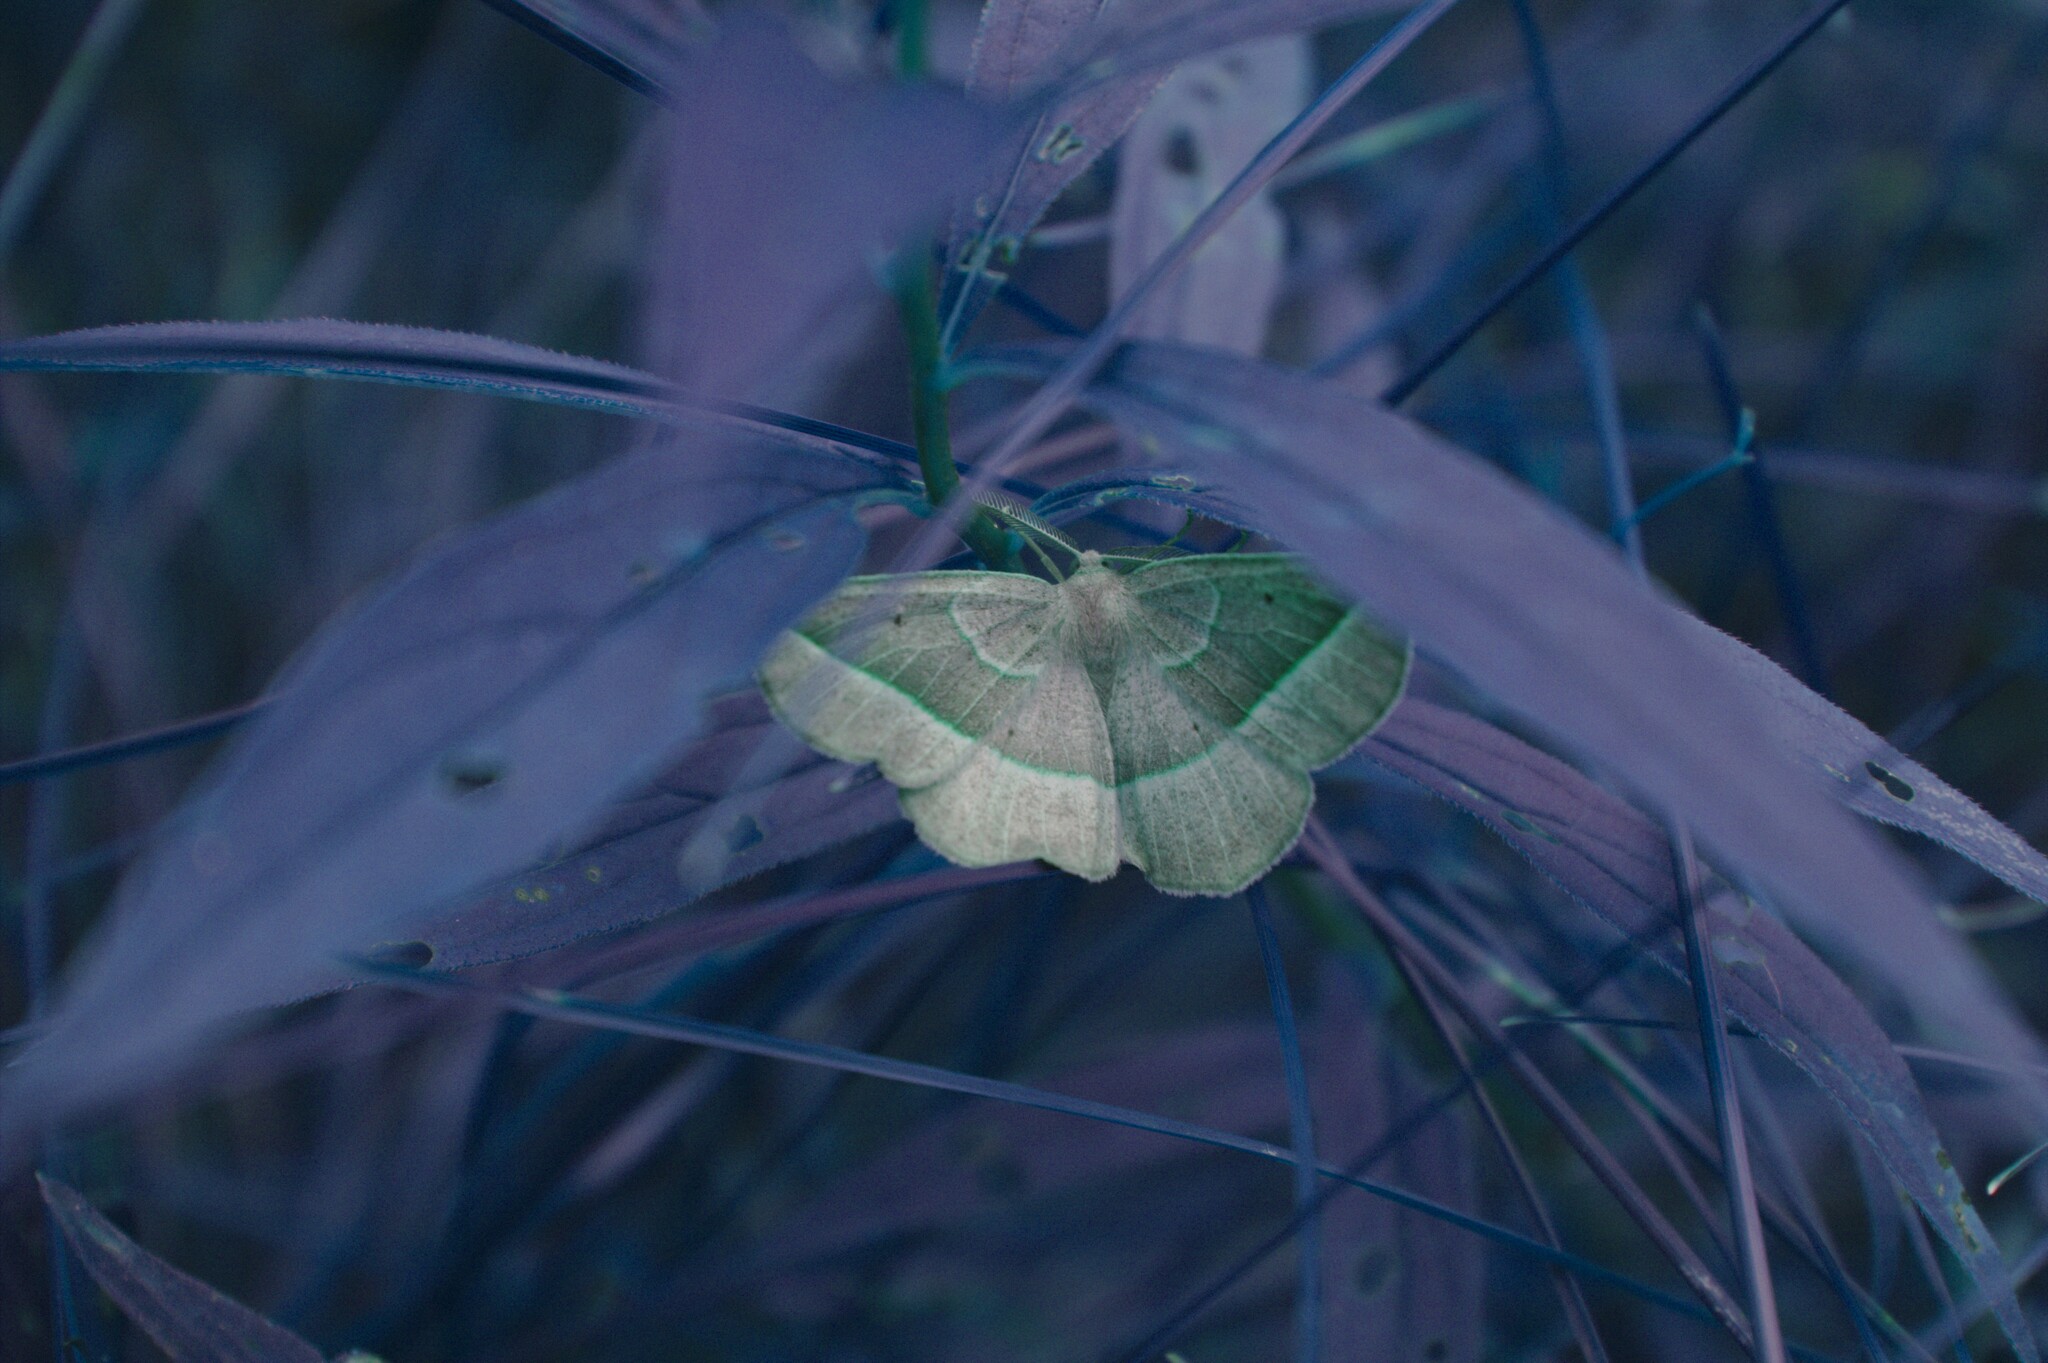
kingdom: Animalia
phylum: Arthropoda
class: Insecta
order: Lepidoptera
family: Geometridae
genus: Eusarca
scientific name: Eusarca confusaria
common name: Confused eusarca
